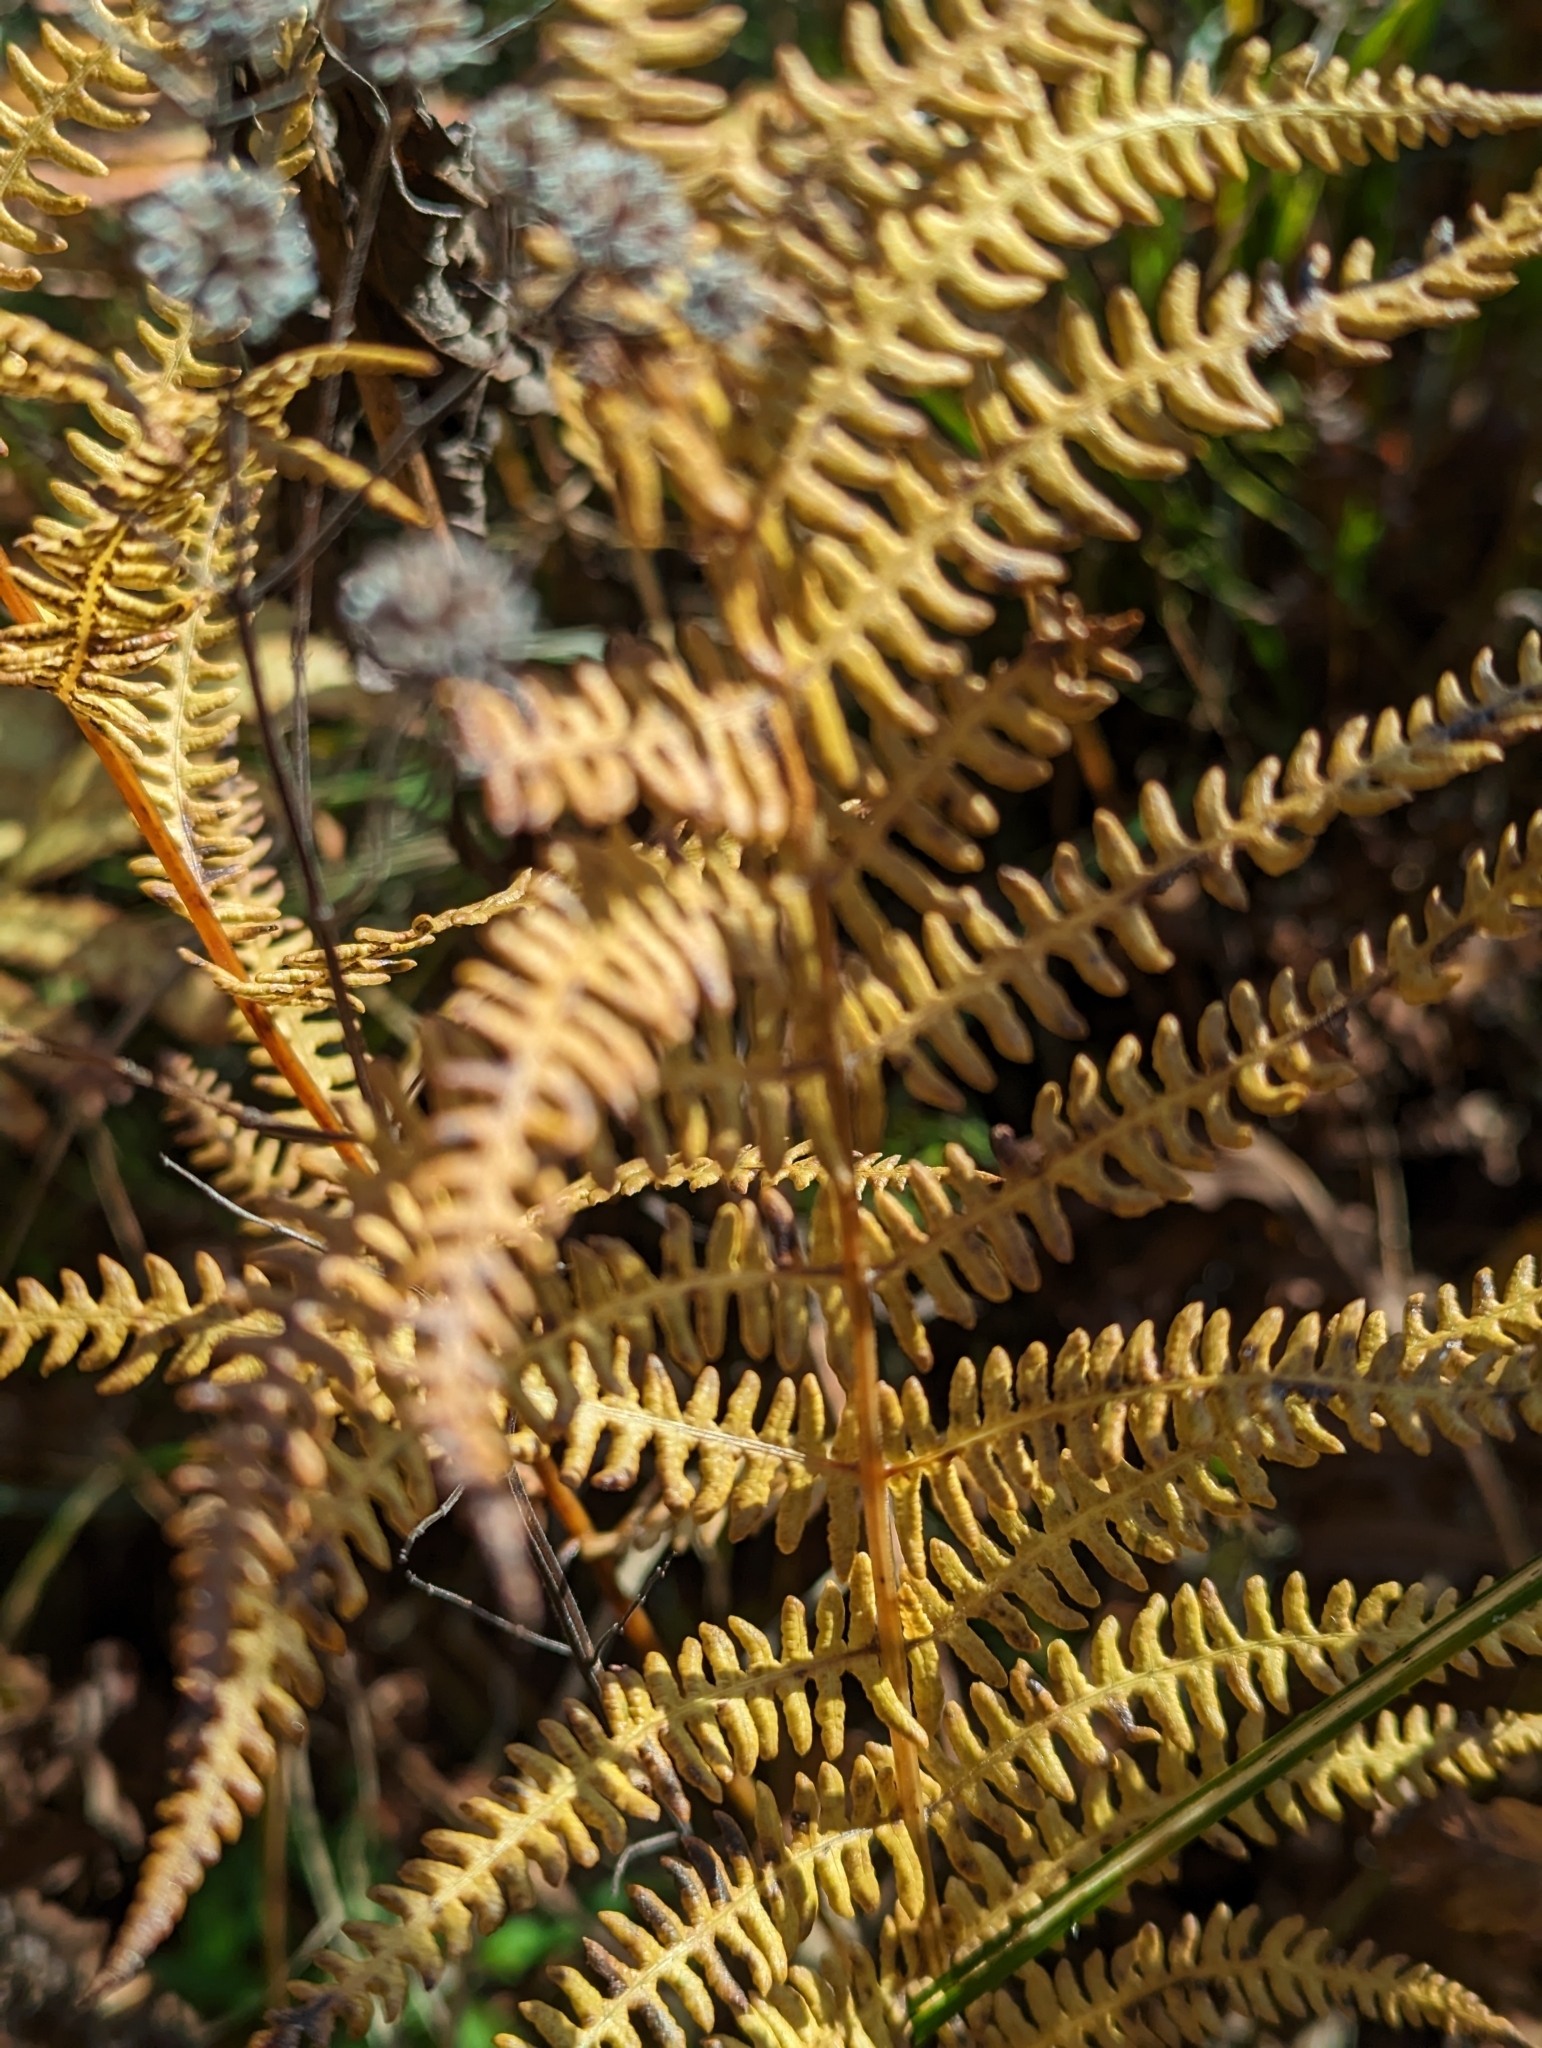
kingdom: Plantae
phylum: Tracheophyta
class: Polypodiopsida
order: Polypodiales
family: Thelypteridaceae
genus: Thelypteris
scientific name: Thelypteris palustris
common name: Marsh fern
